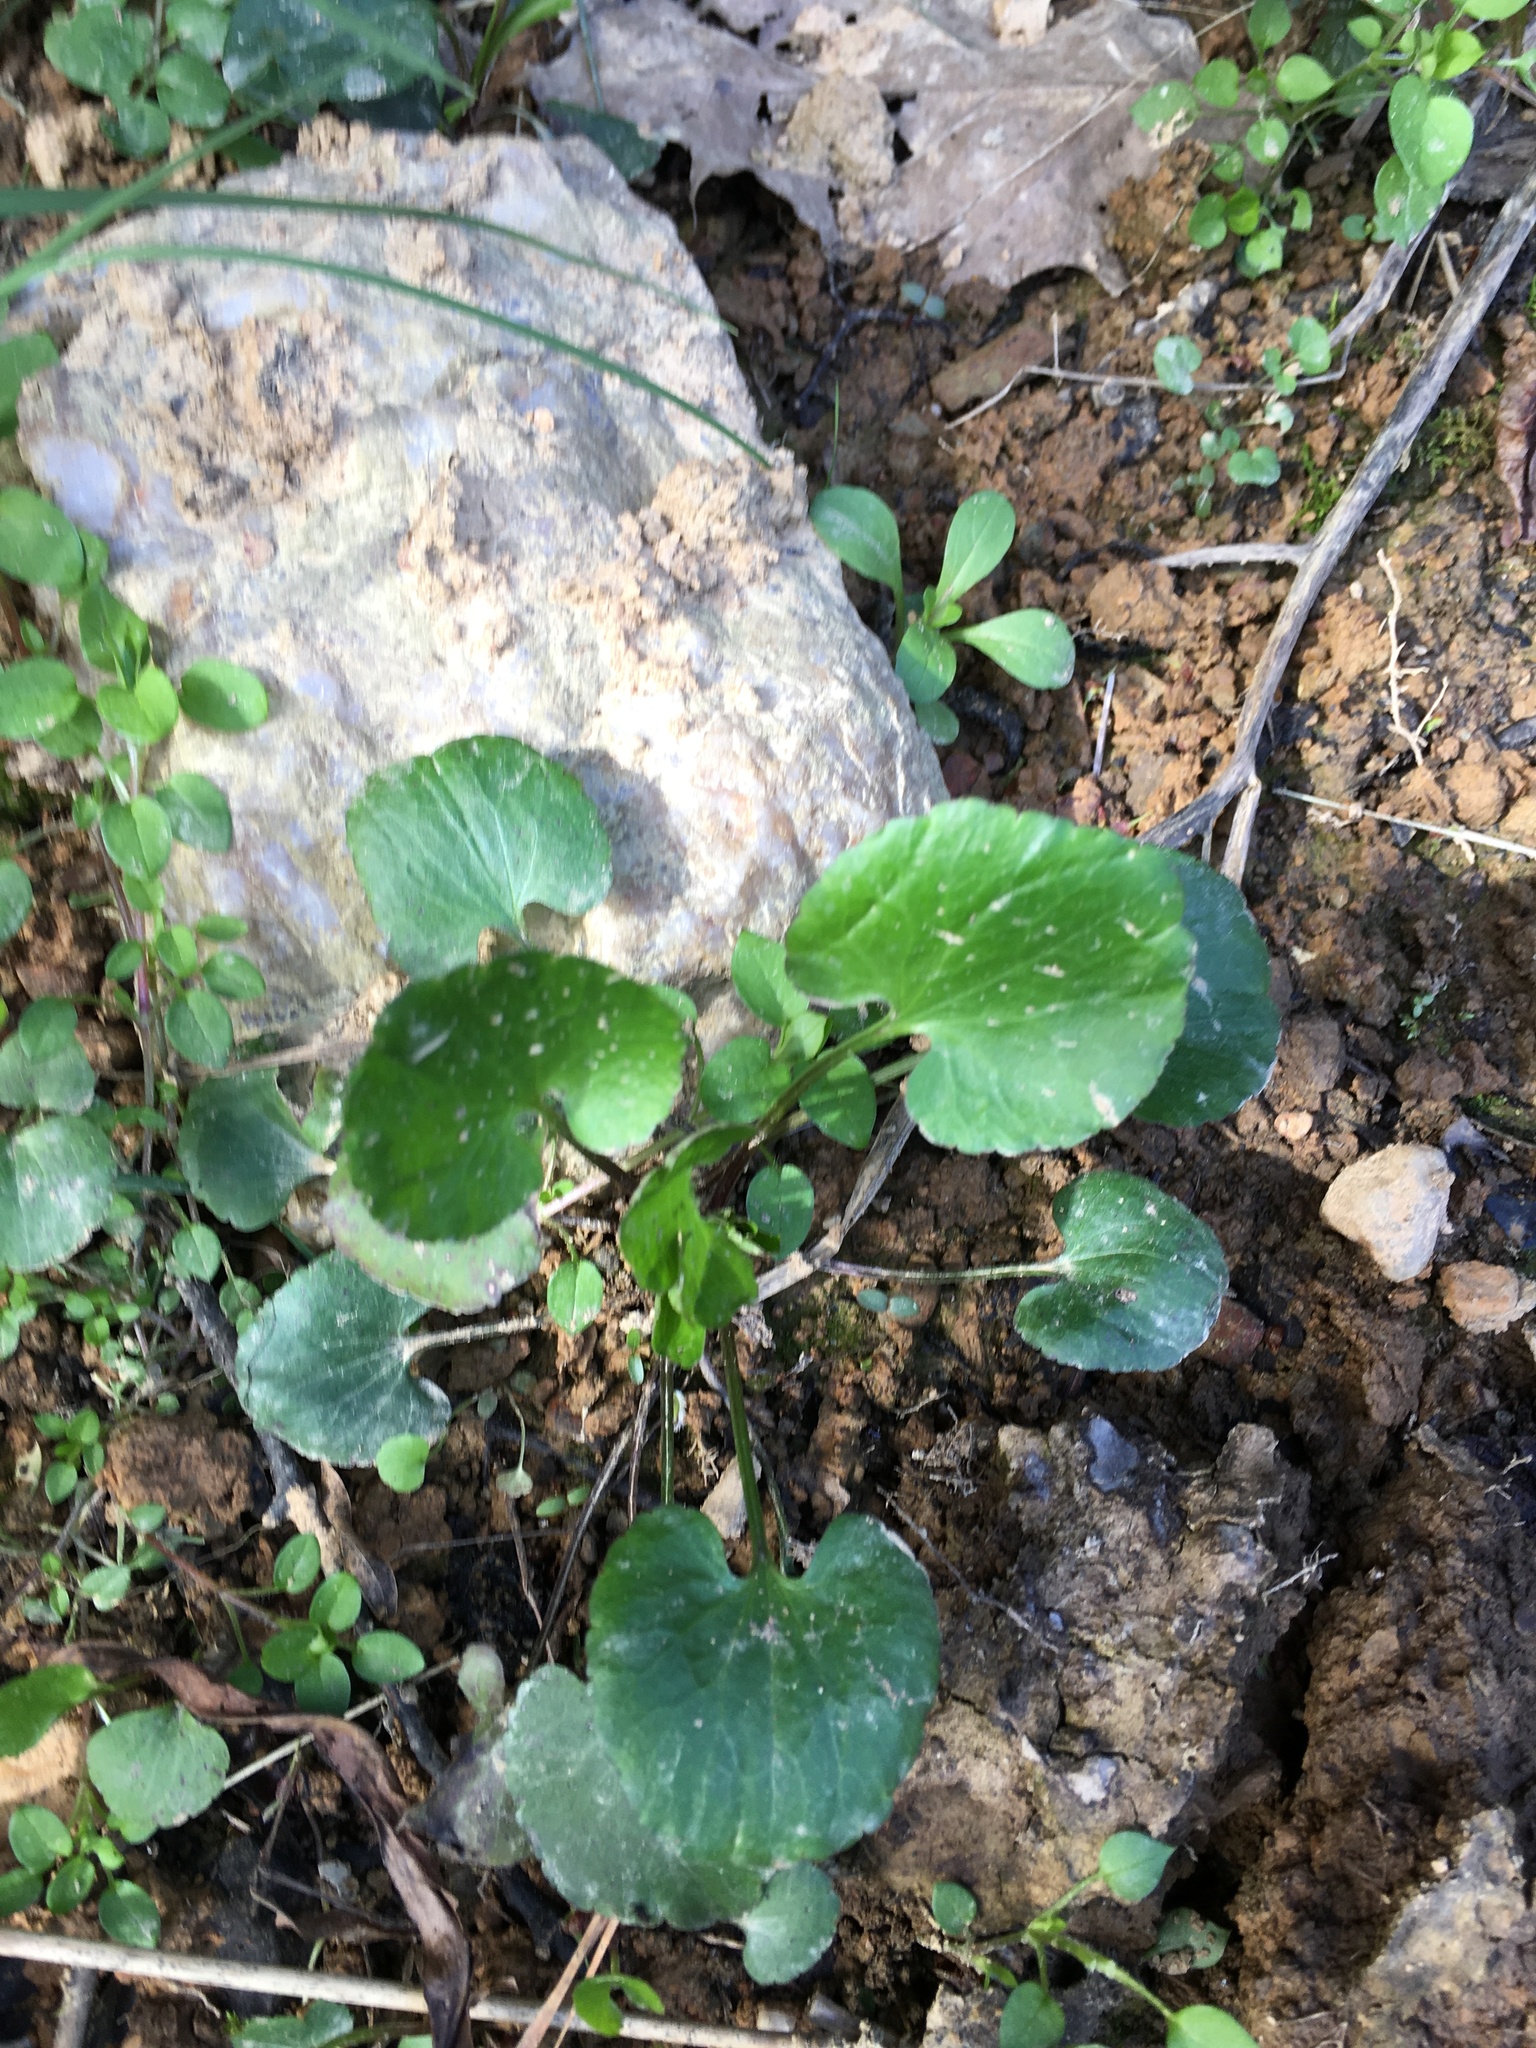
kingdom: Plantae
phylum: Tracheophyta
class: Magnoliopsida
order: Ranunculales
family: Ranunculaceae
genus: Ranunculus
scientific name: Ranunculus abortivus
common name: Early wood buttercup
